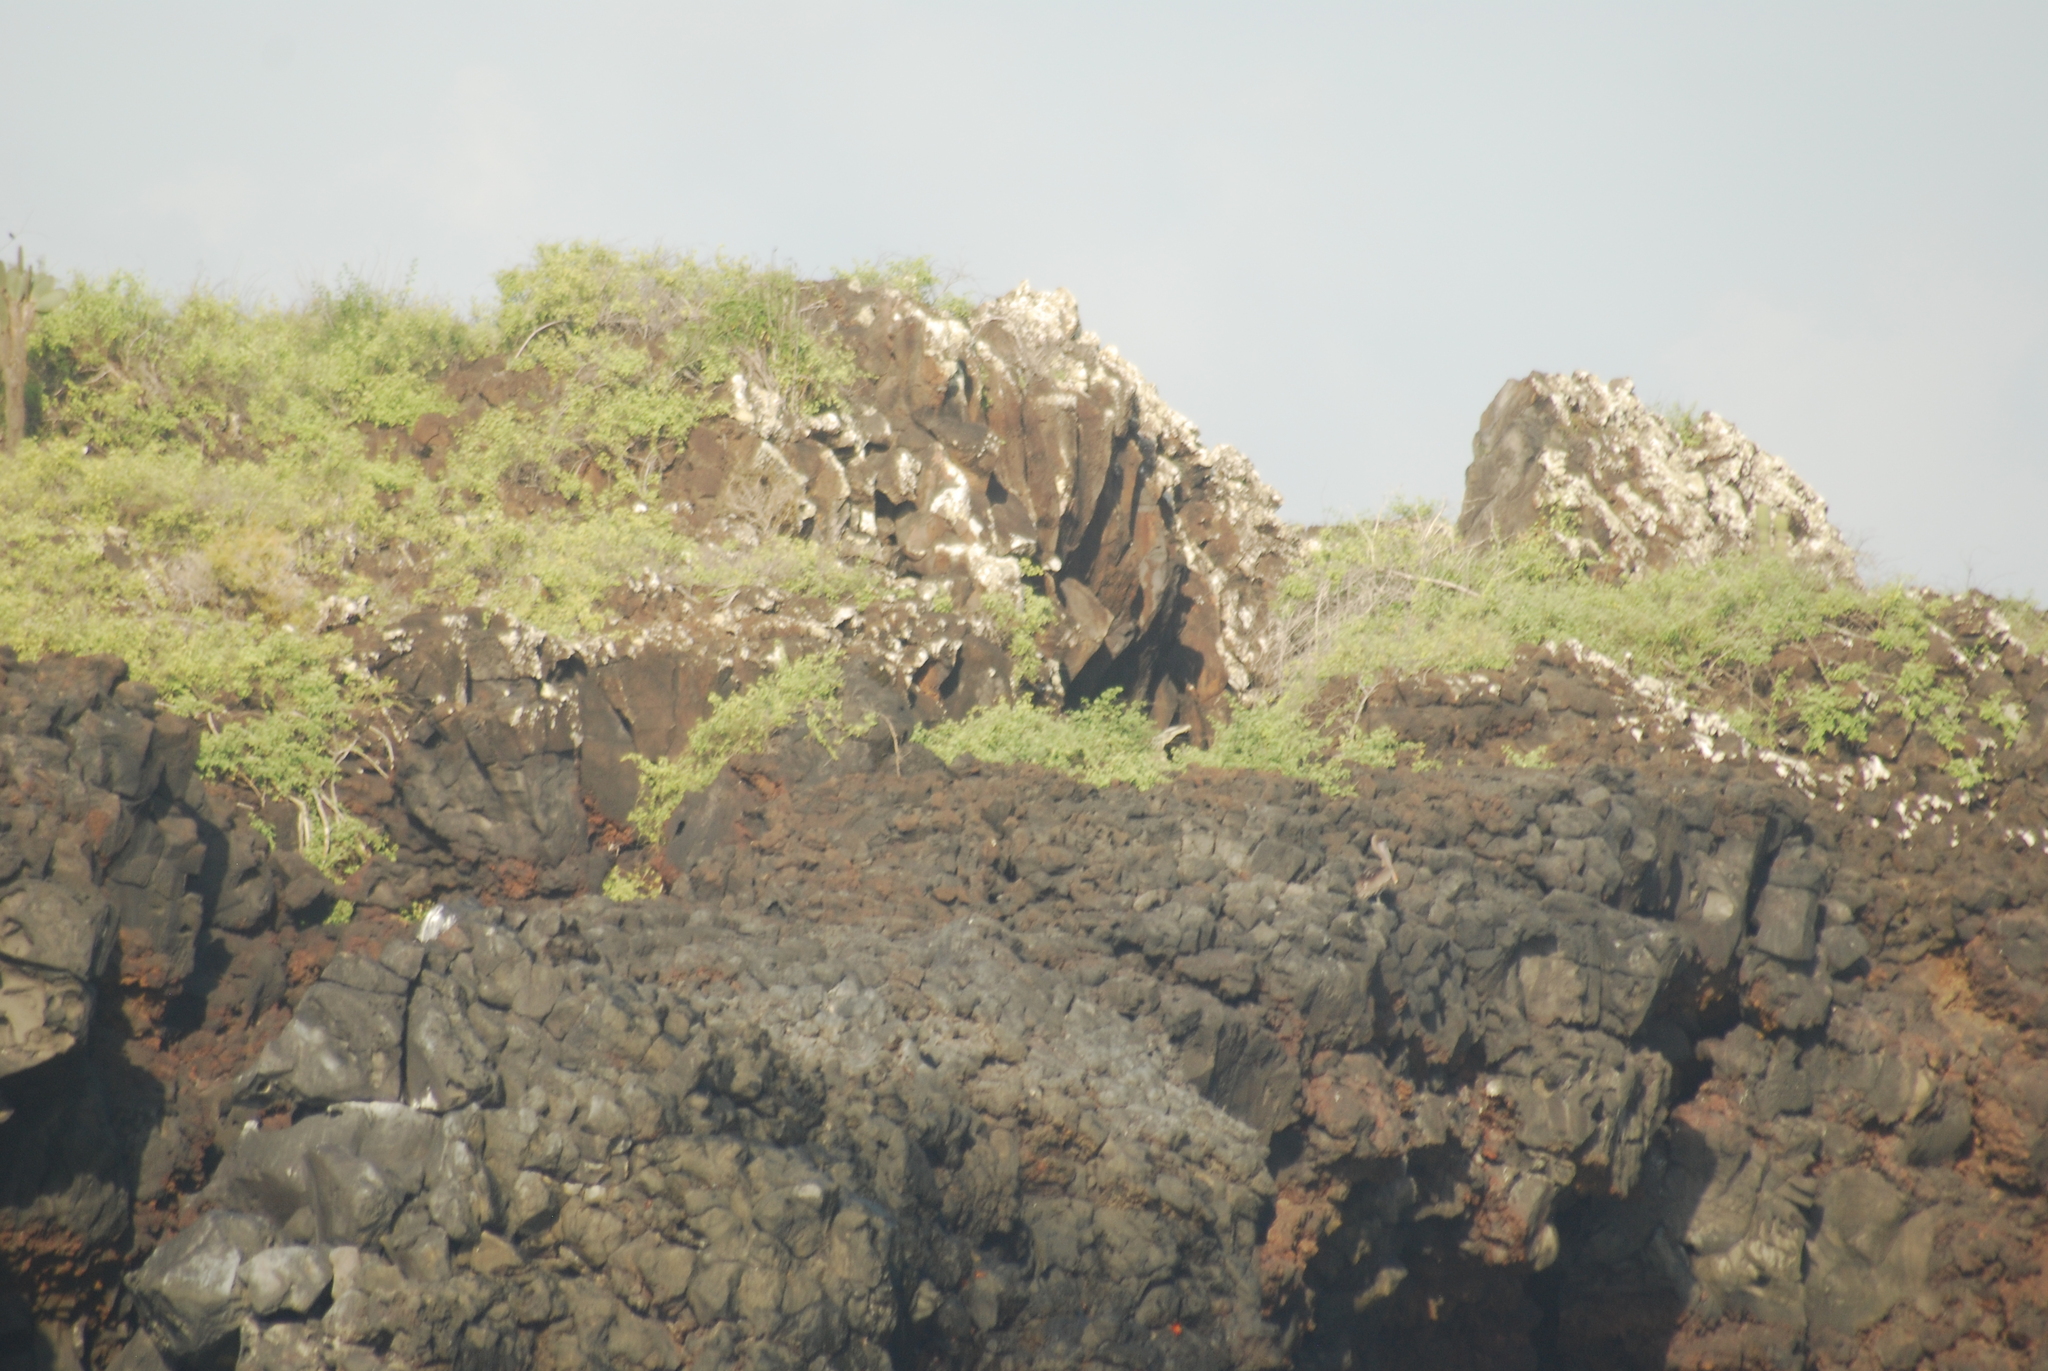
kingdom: Animalia
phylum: Chordata
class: Aves
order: Pelecaniformes
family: Pelecanidae
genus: Pelecanus
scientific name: Pelecanus occidentalis
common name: Brown pelican
